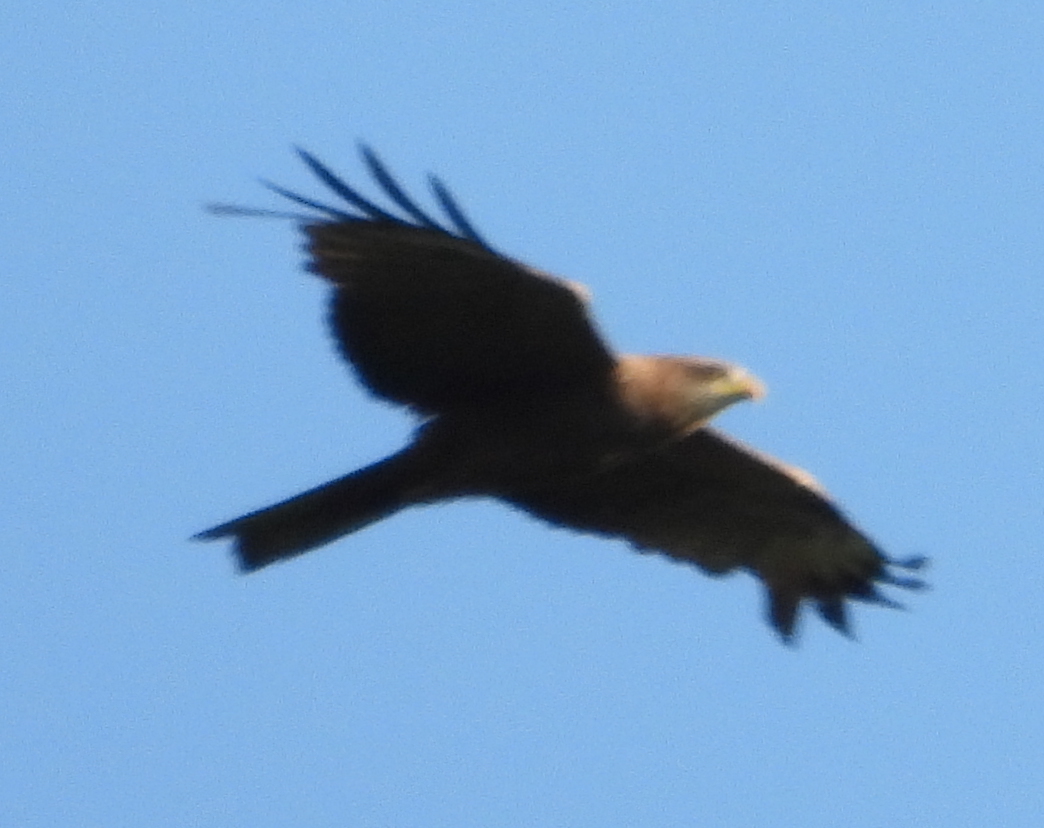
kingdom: Animalia
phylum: Chordata
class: Aves
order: Accipitriformes
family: Accipitridae
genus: Milvus
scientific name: Milvus migrans
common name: Black kite
